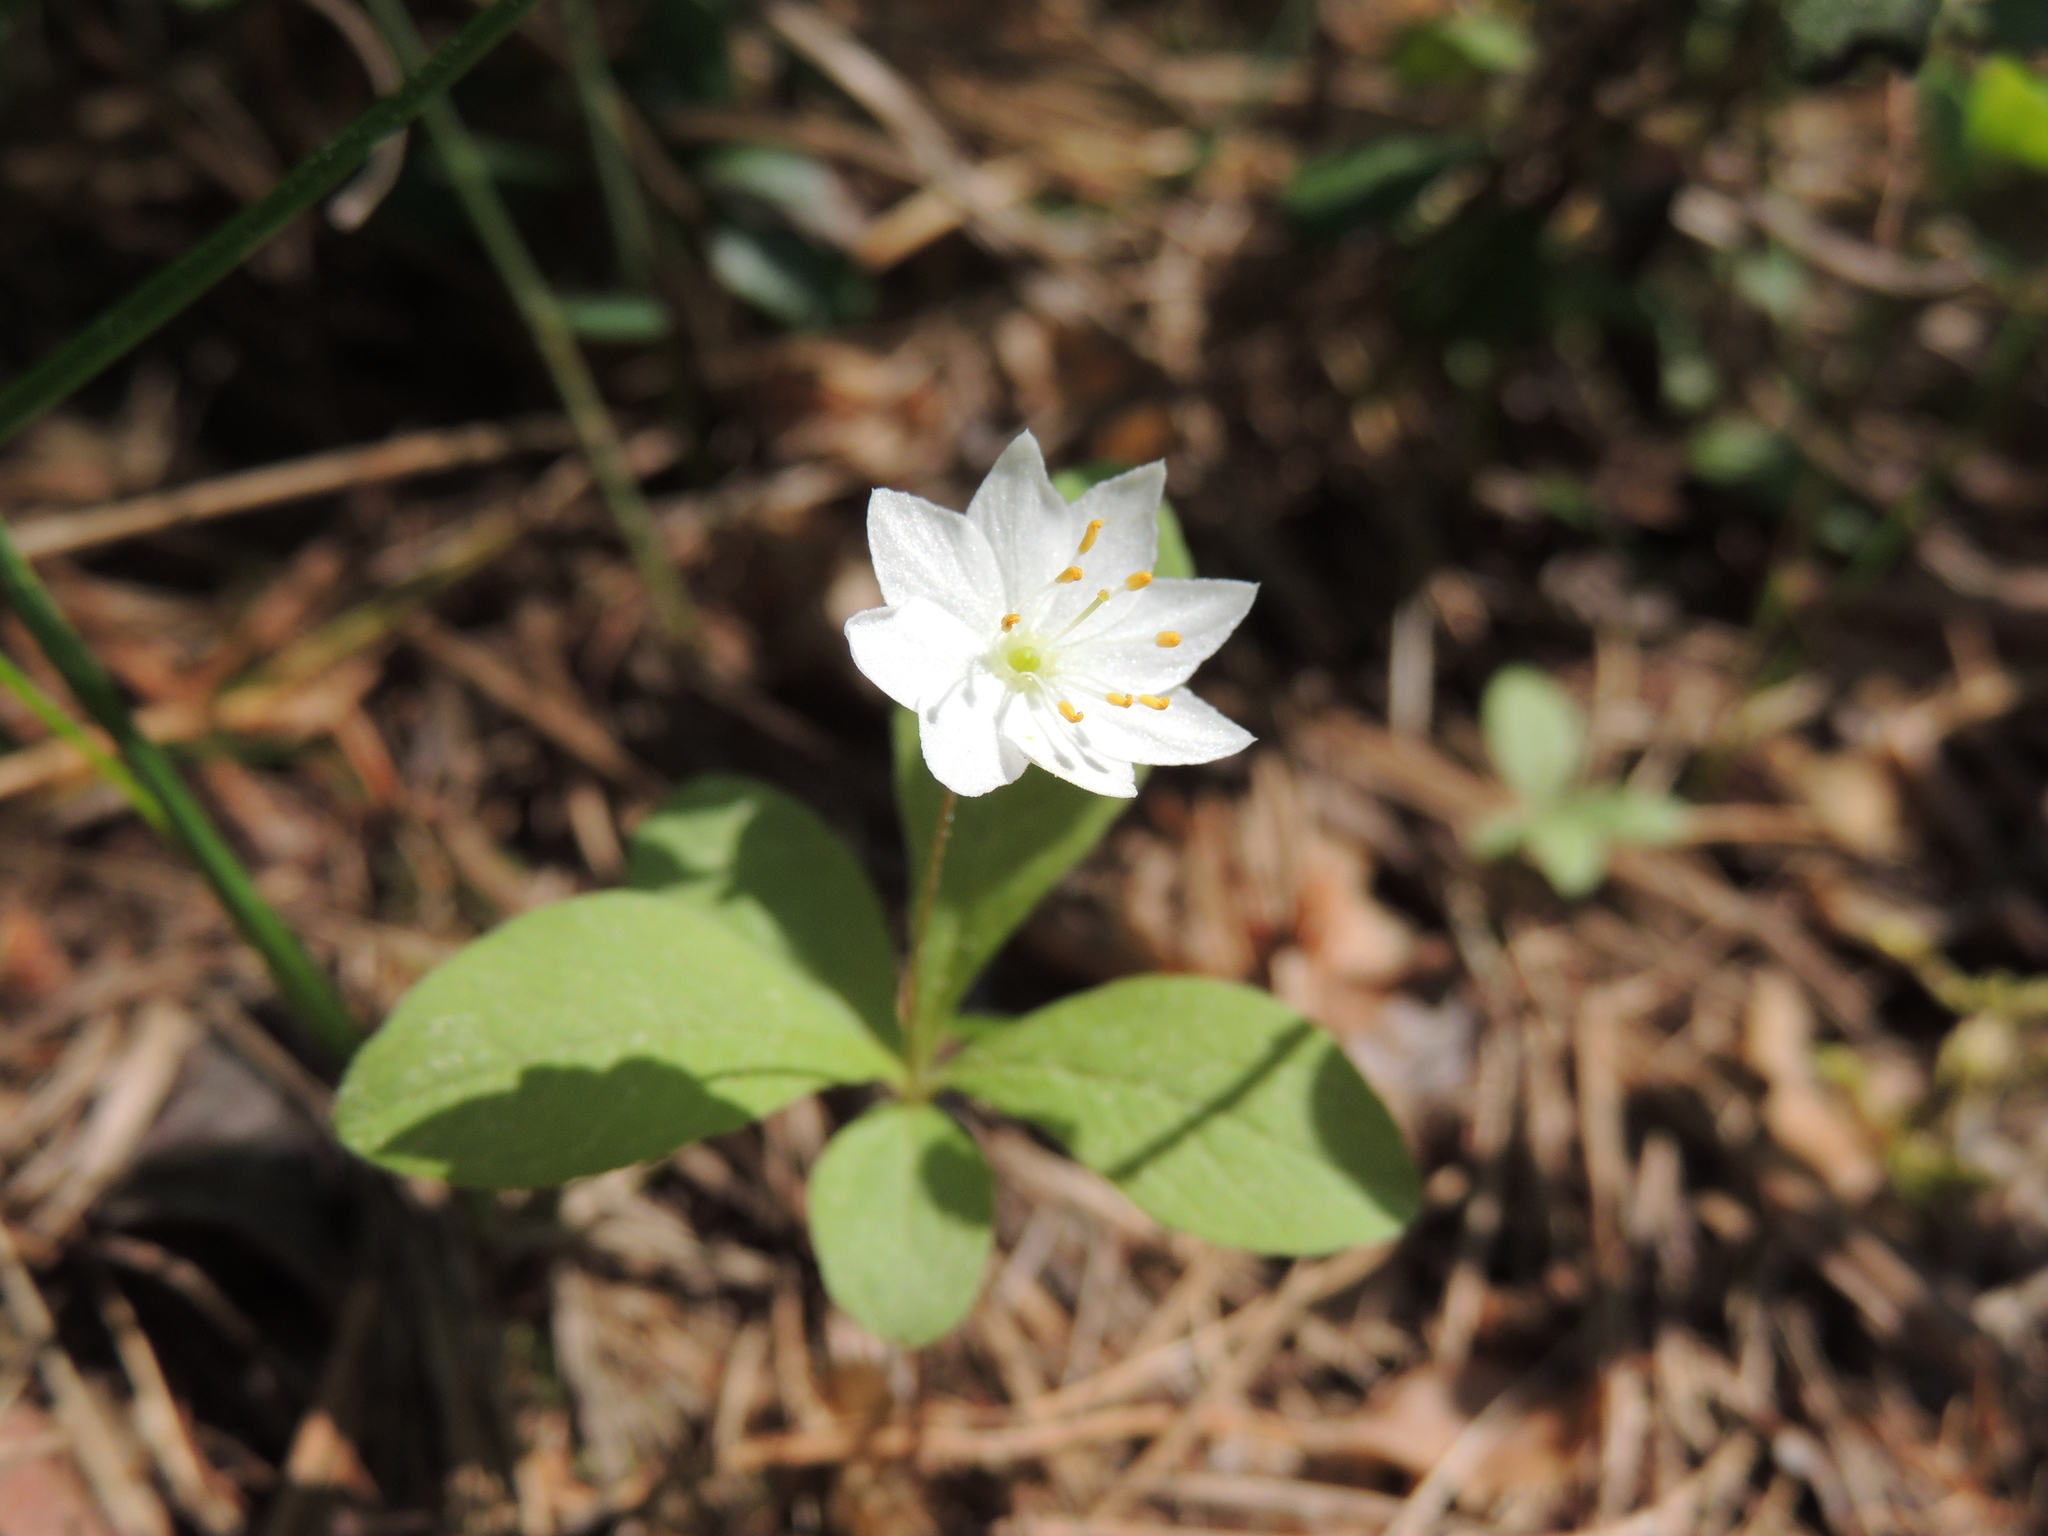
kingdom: Plantae
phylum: Tracheophyta
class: Magnoliopsida
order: Ericales
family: Primulaceae
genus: Lysimachia
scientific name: Lysimachia europaea
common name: Arctic starflower
